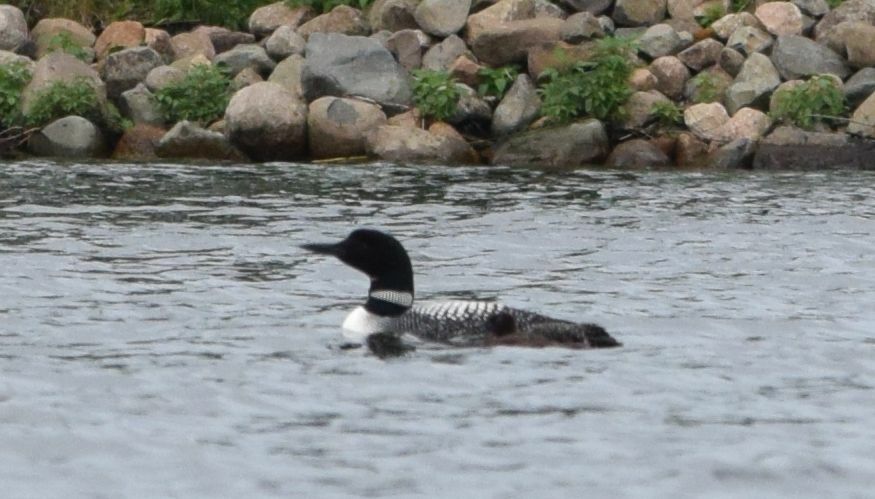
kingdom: Animalia
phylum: Chordata
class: Aves
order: Gaviiformes
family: Gaviidae
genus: Gavia
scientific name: Gavia immer
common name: Common loon
